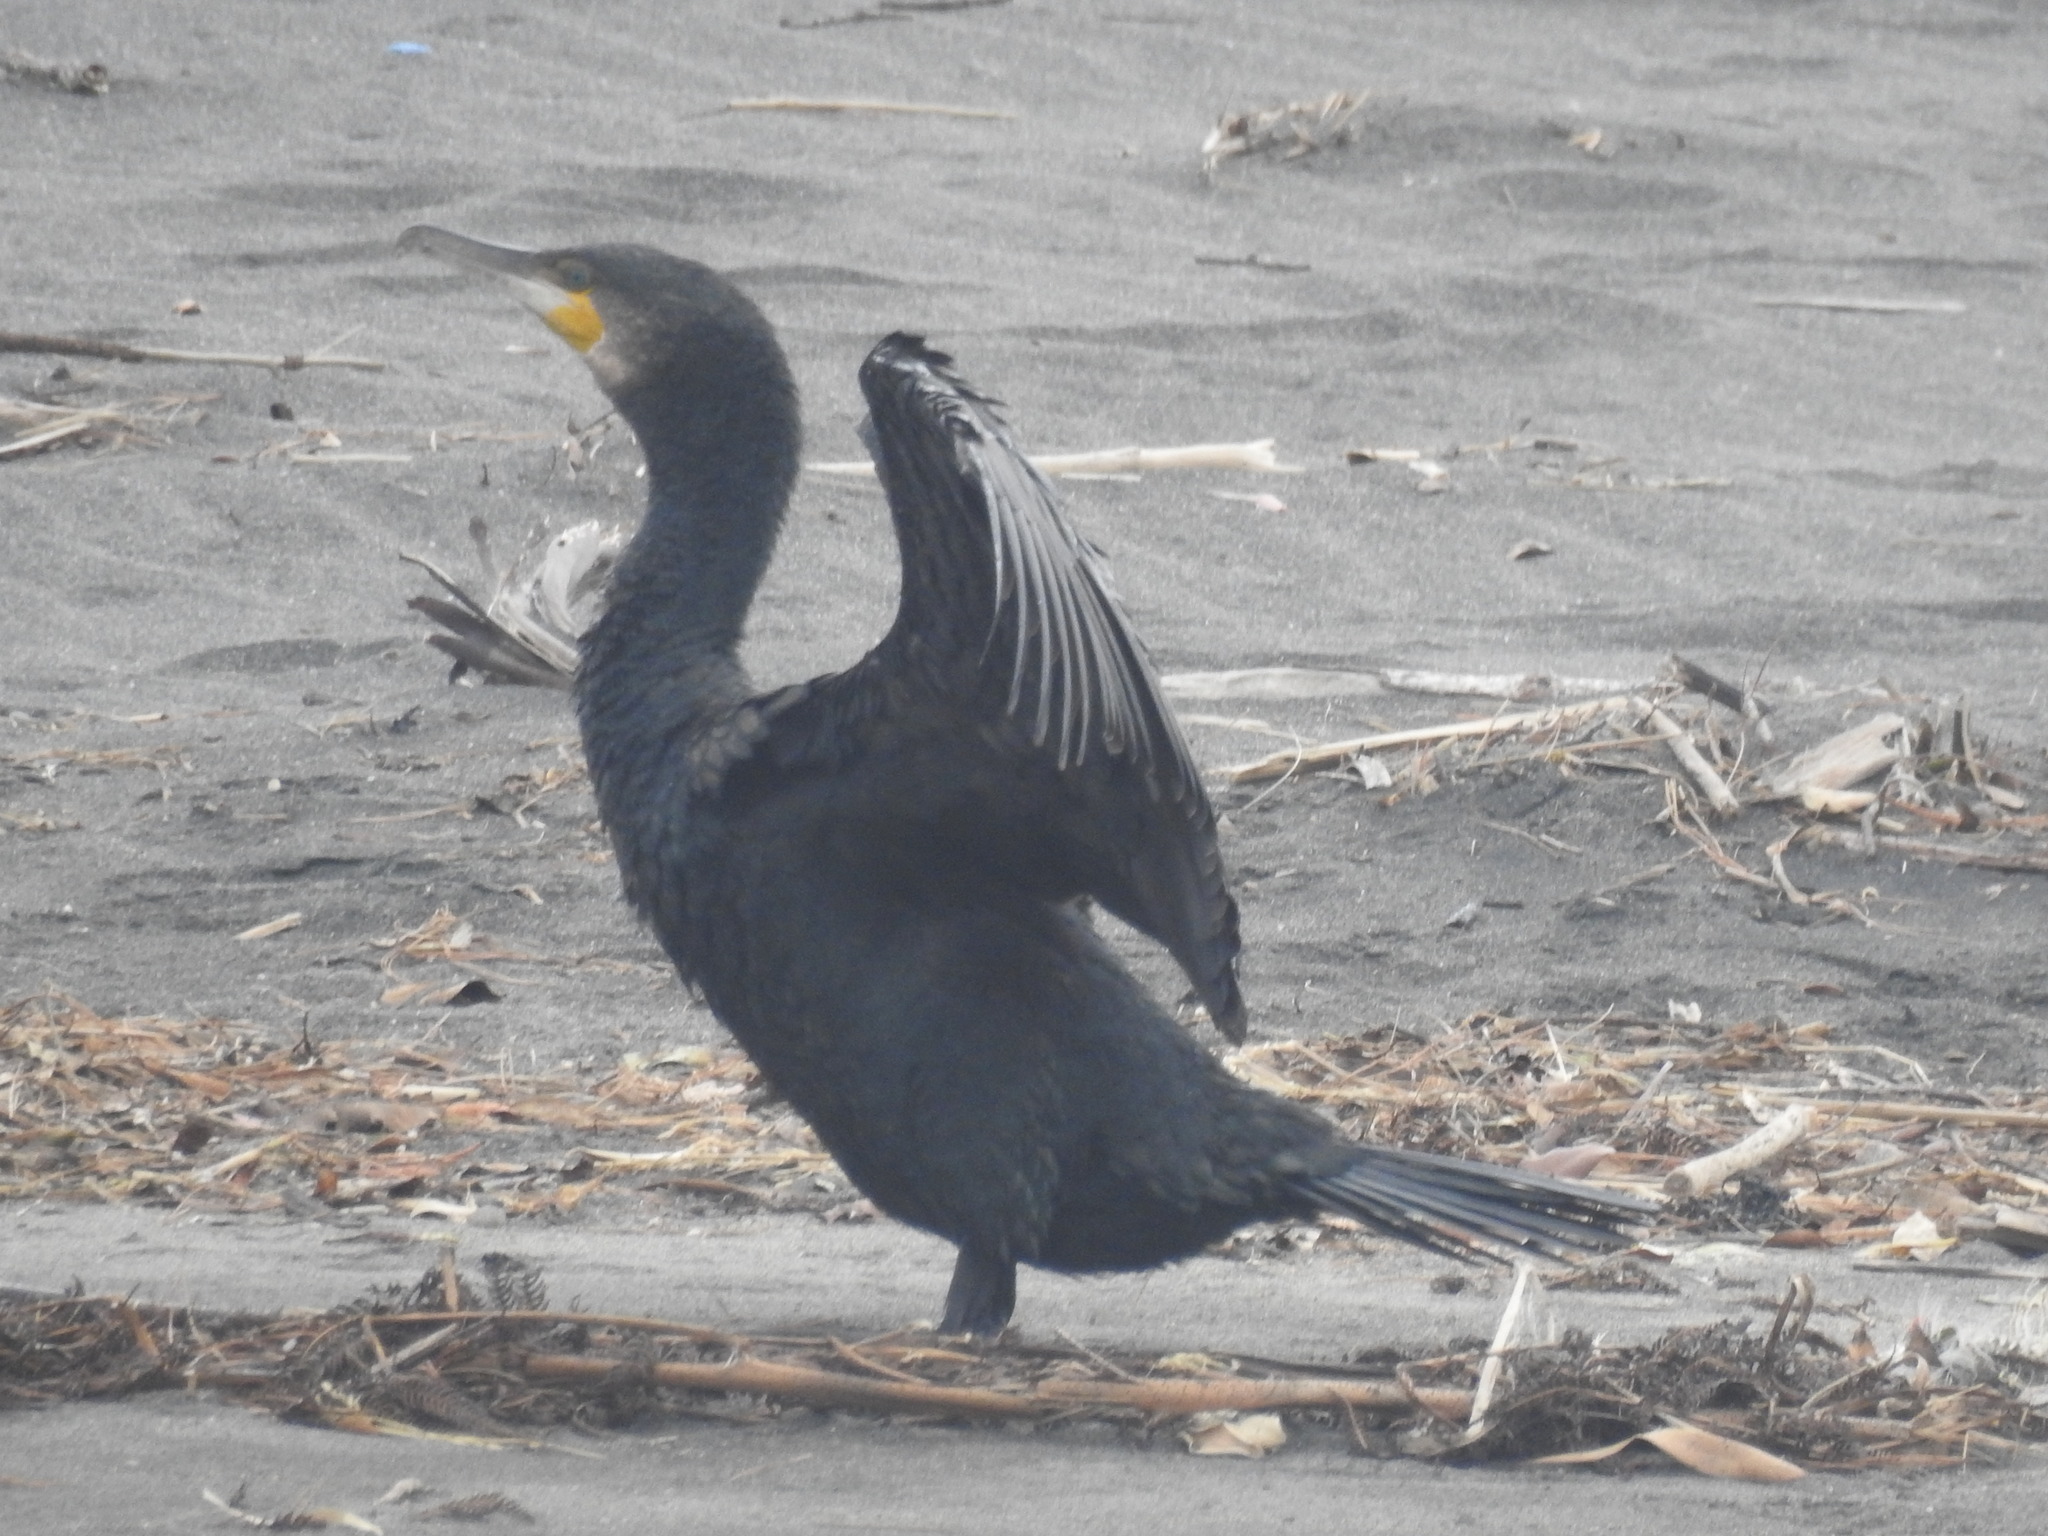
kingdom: Animalia
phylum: Chordata
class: Aves
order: Suliformes
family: Phalacrocoracidae
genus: Phalacrocorax
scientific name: Phalacrocorax carbo
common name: Great cormorant
